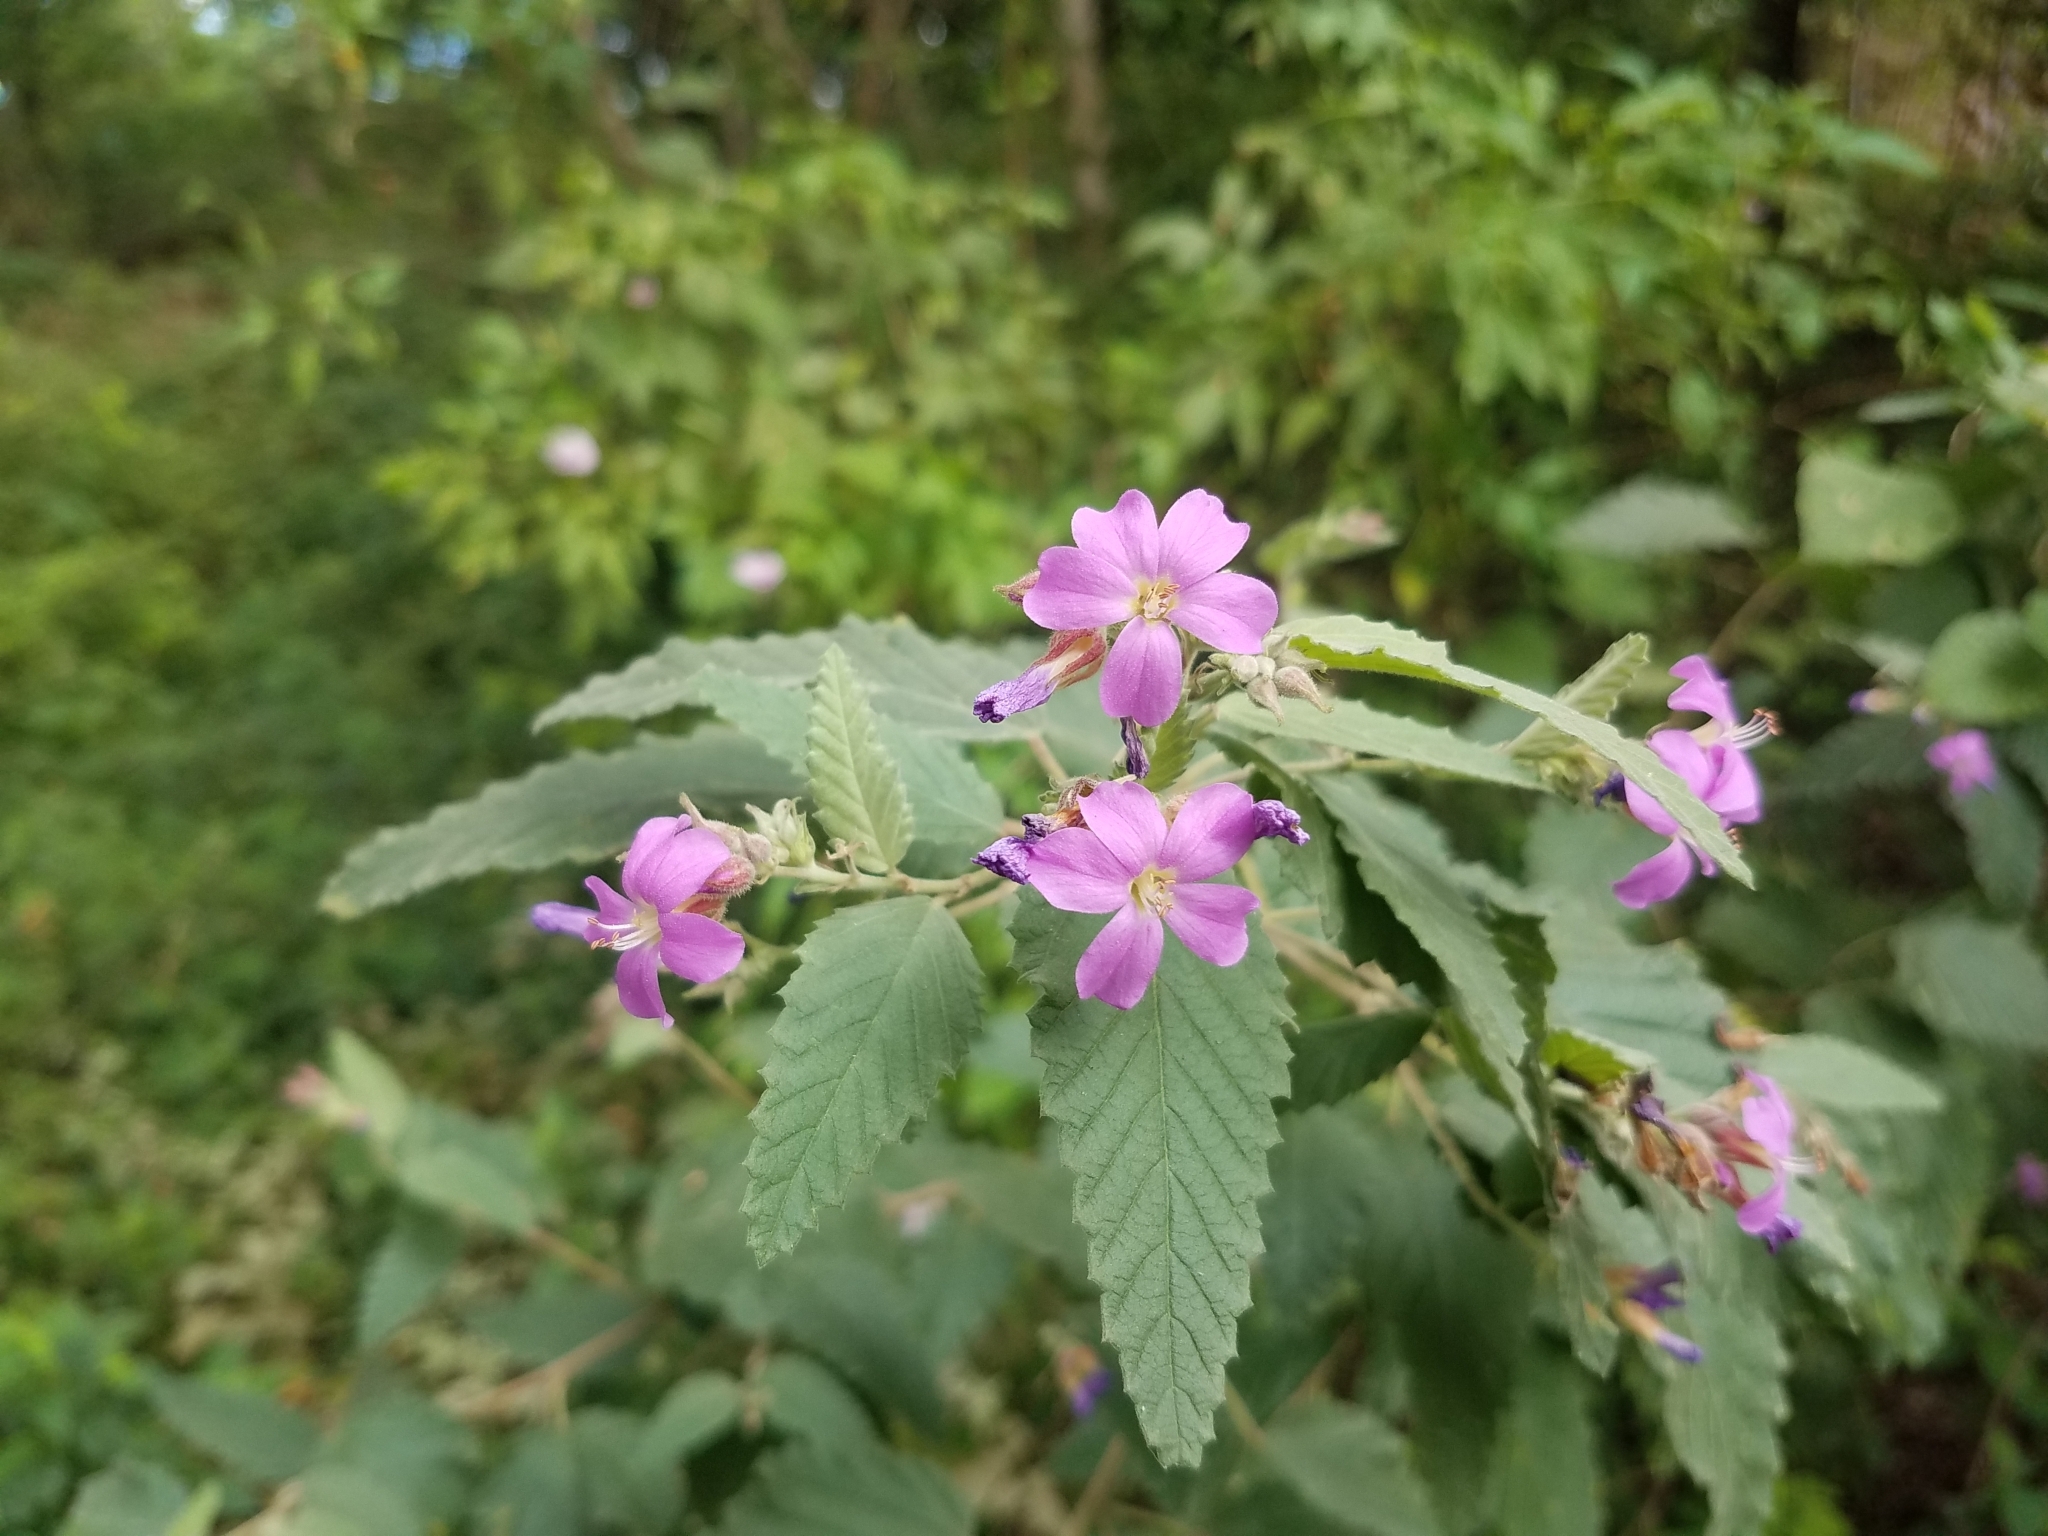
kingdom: Plantae
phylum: Tracheophyta
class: Magnoliopsida
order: Malvales
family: Malvaceae
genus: Melochia
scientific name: Melochia tomentosa
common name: Black torch
